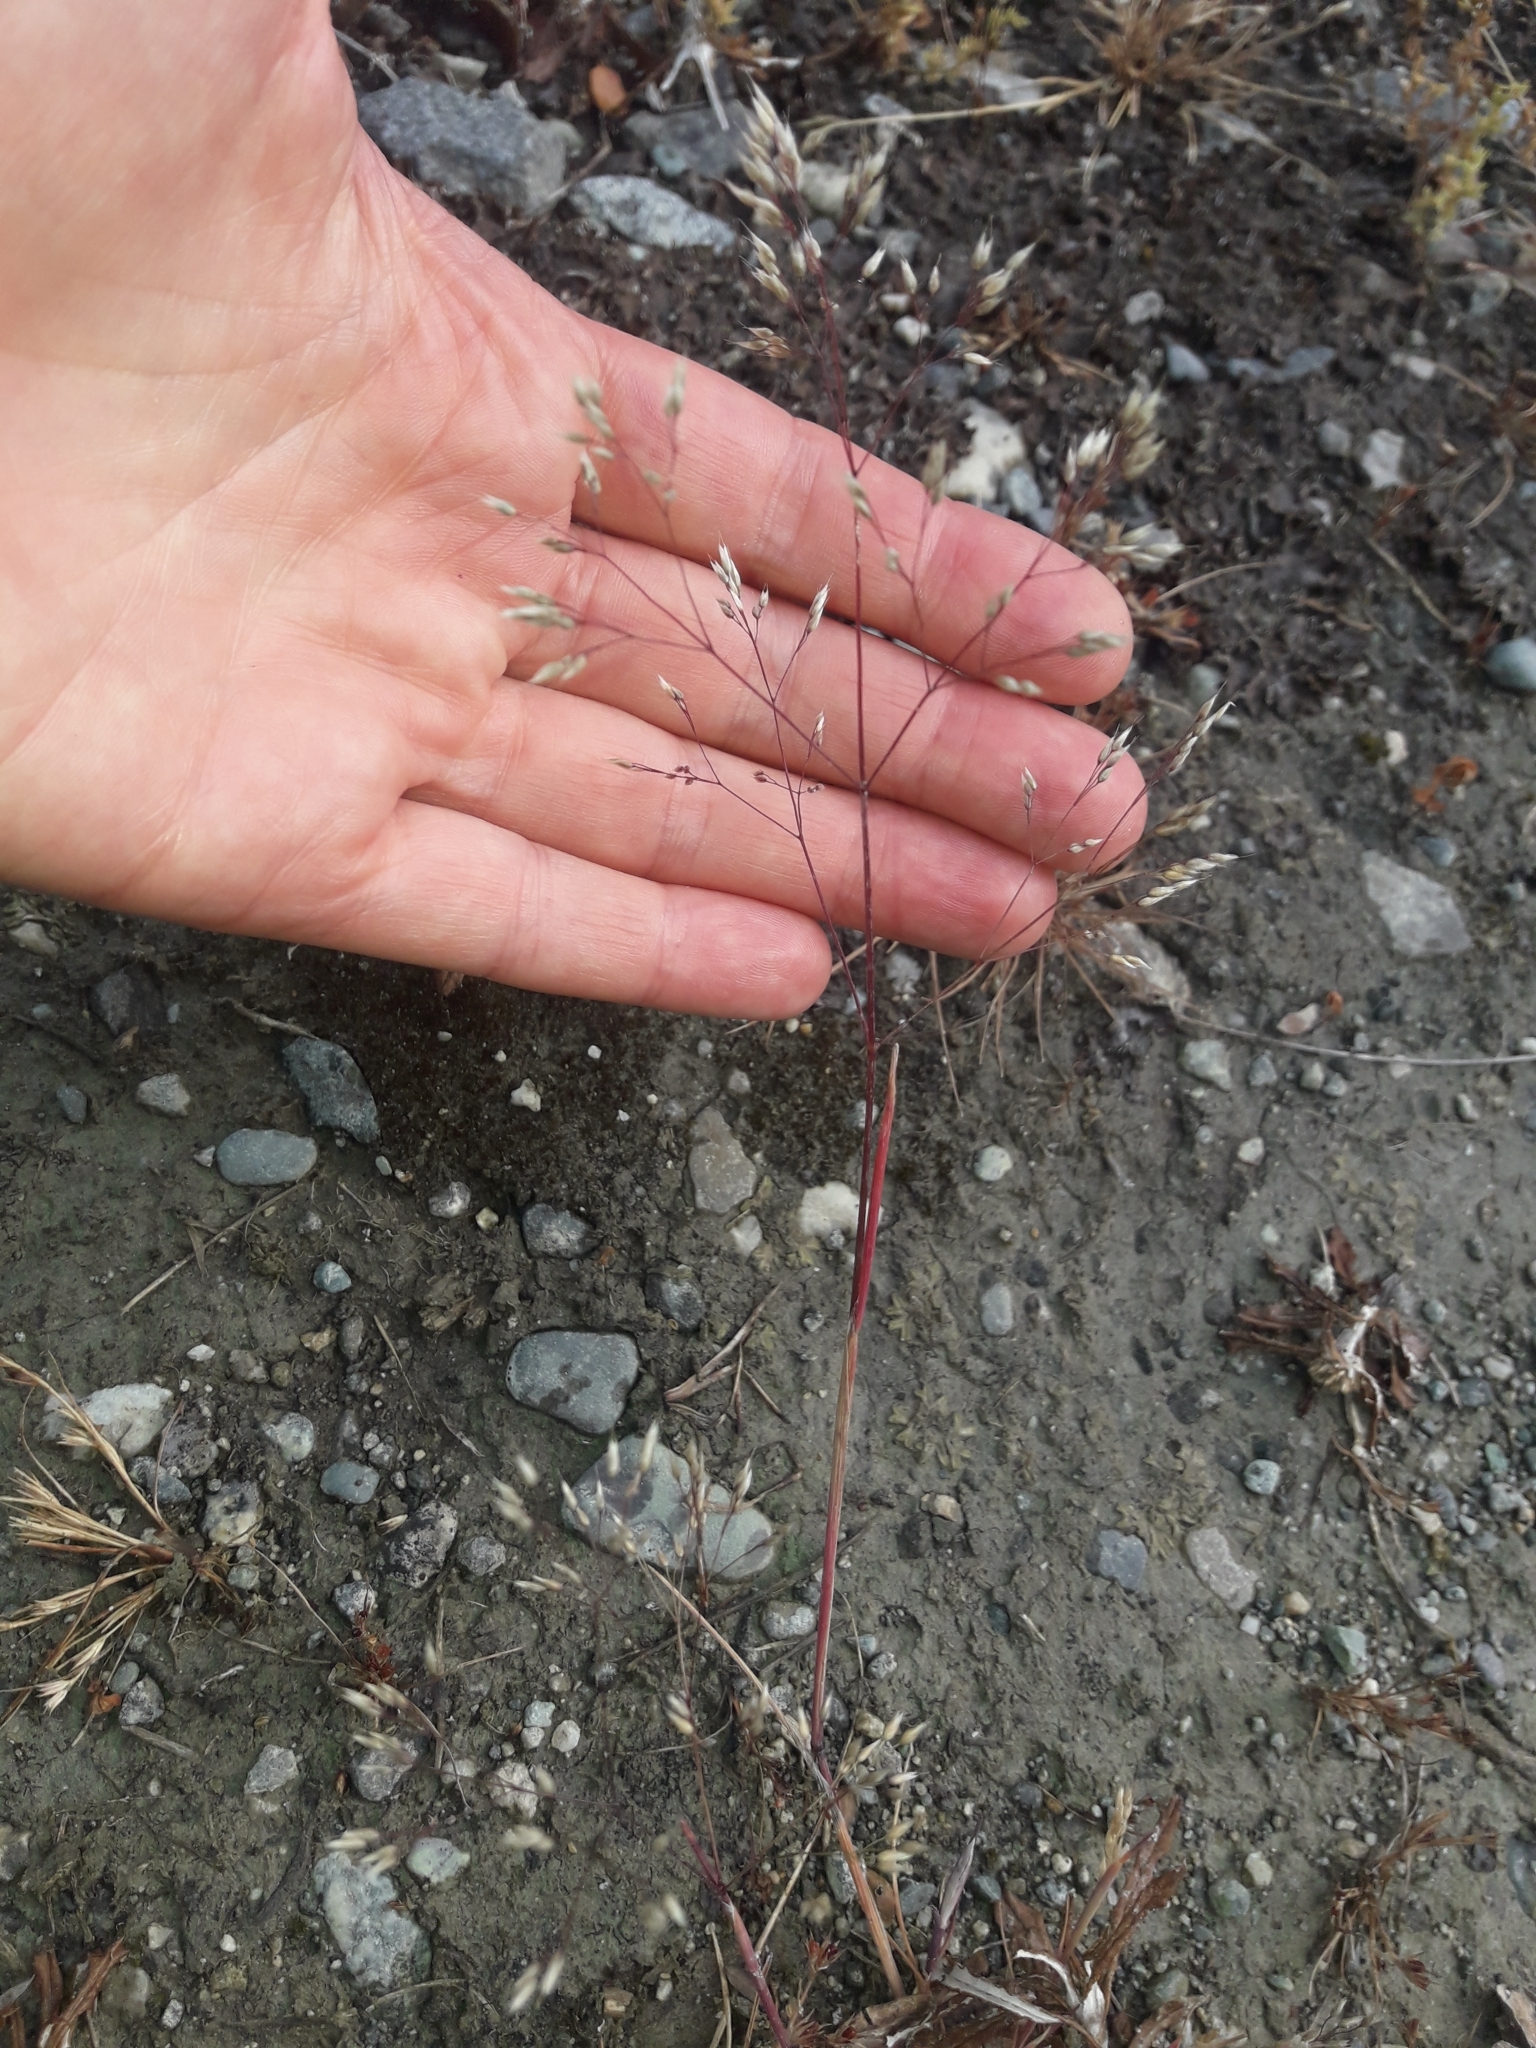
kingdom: Plantae
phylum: Tracheophyta
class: Liliopsida
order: Poales
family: Poaceae
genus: Aira
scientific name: Aira caryophyllea
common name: Silver hairgrass
